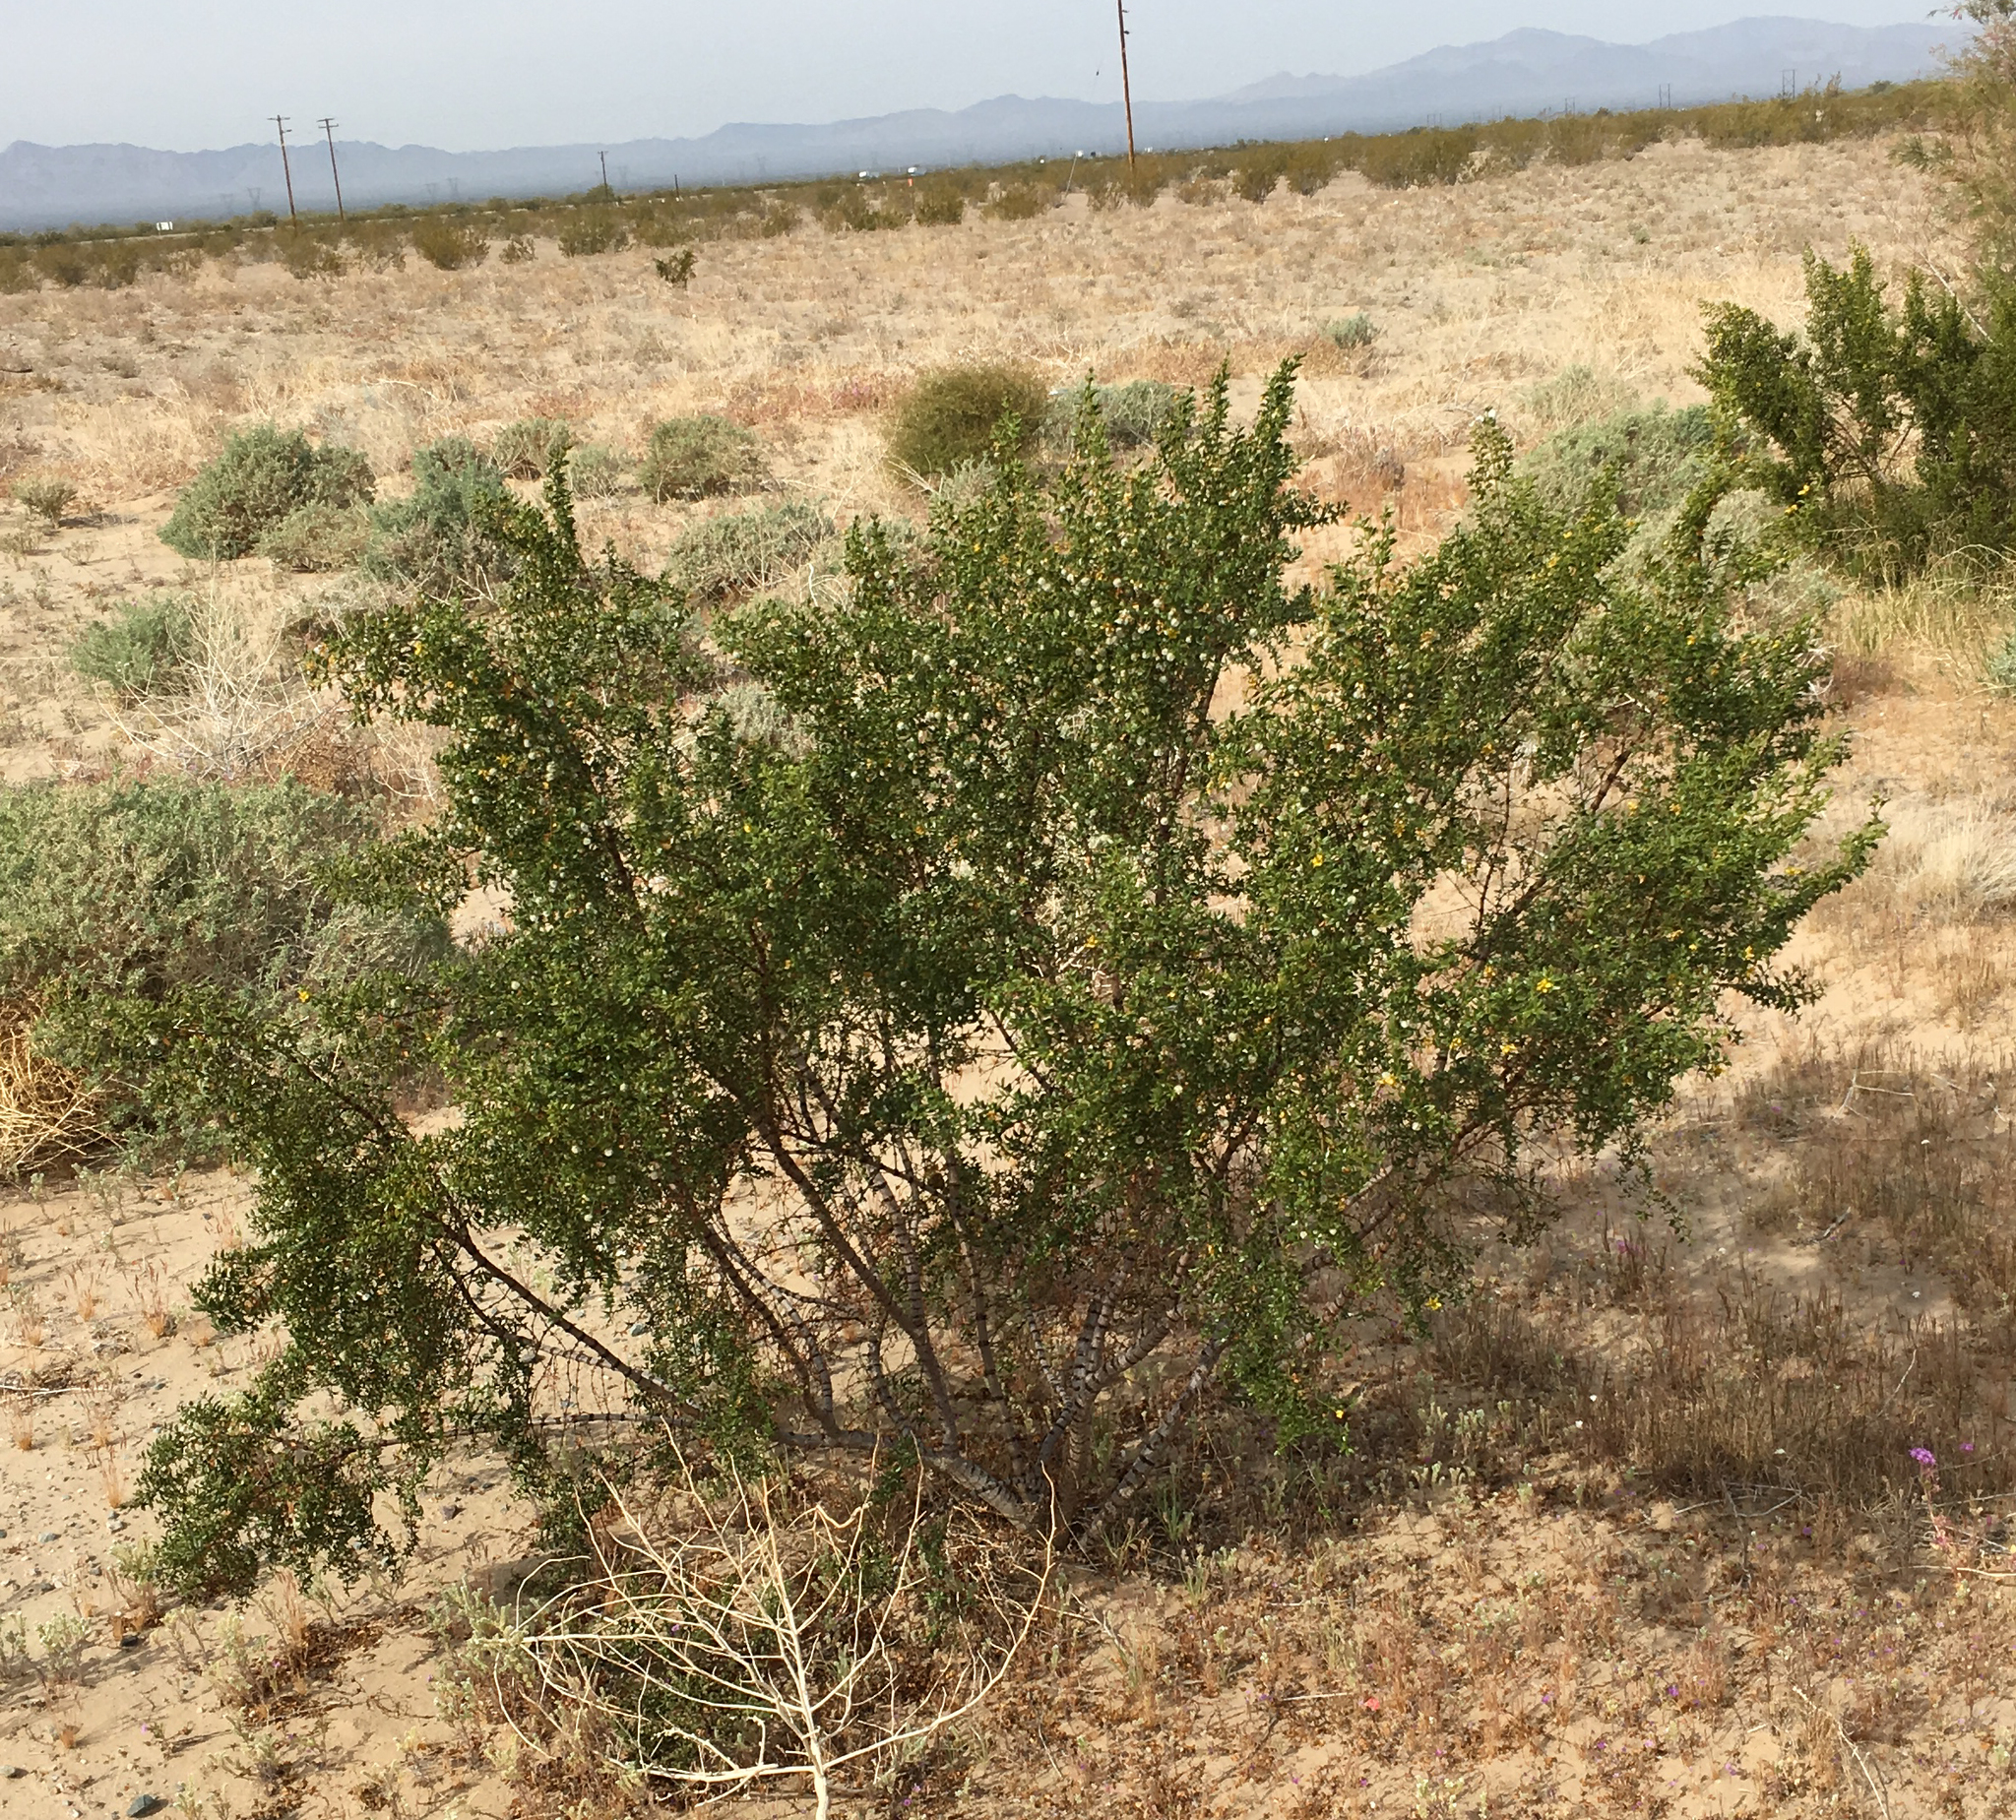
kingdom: Plantae
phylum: Tracheophyta
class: Magnoliopsida
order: Zygophyllales
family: Zygophyllaceae
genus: Larrea
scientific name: Larrea tridentata
